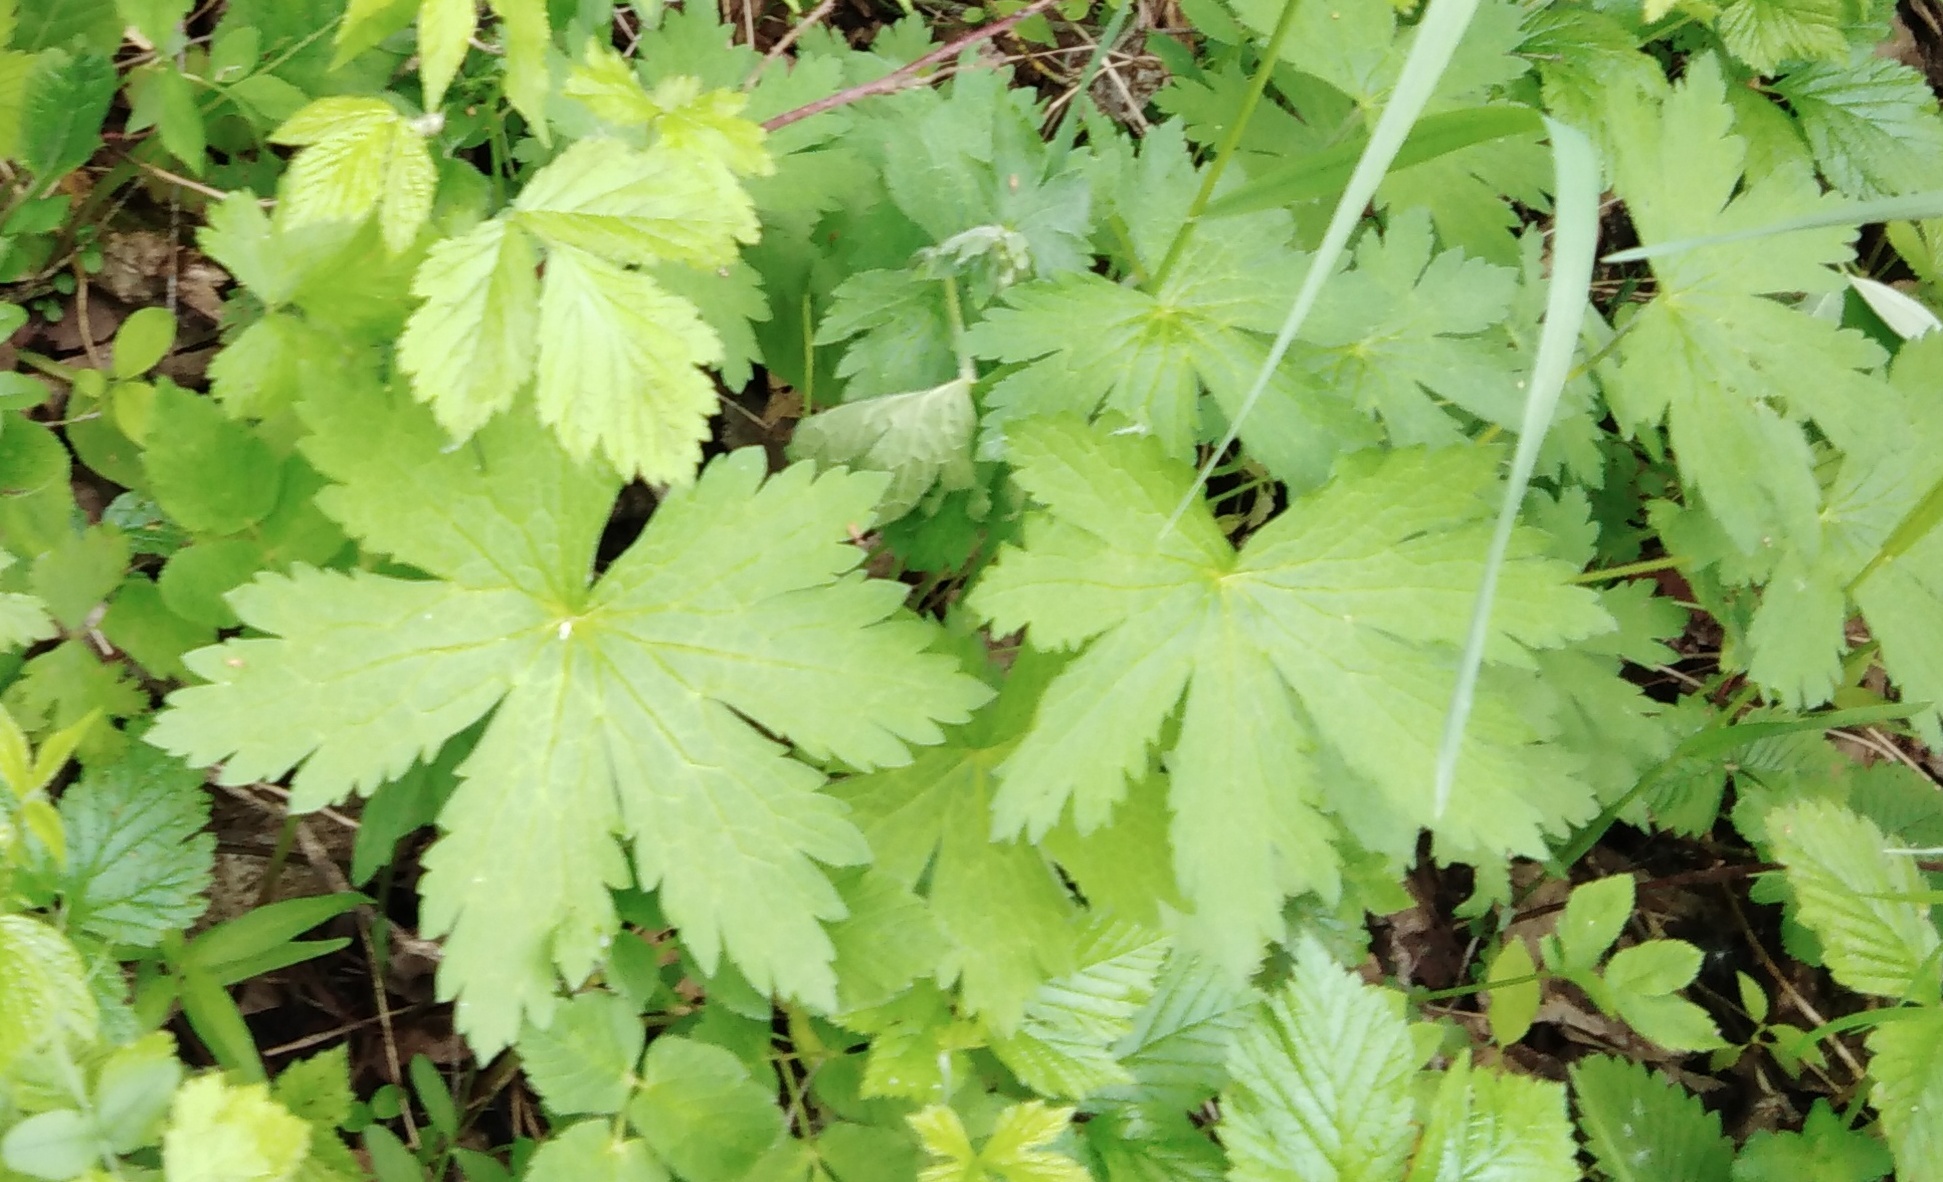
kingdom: Plantae
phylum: Tracheophyta
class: Magnoliopsida
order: Geraniales
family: Geraniaceae
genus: Geranium
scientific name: Geranium sylvaticum
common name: Wood crane's-bill
